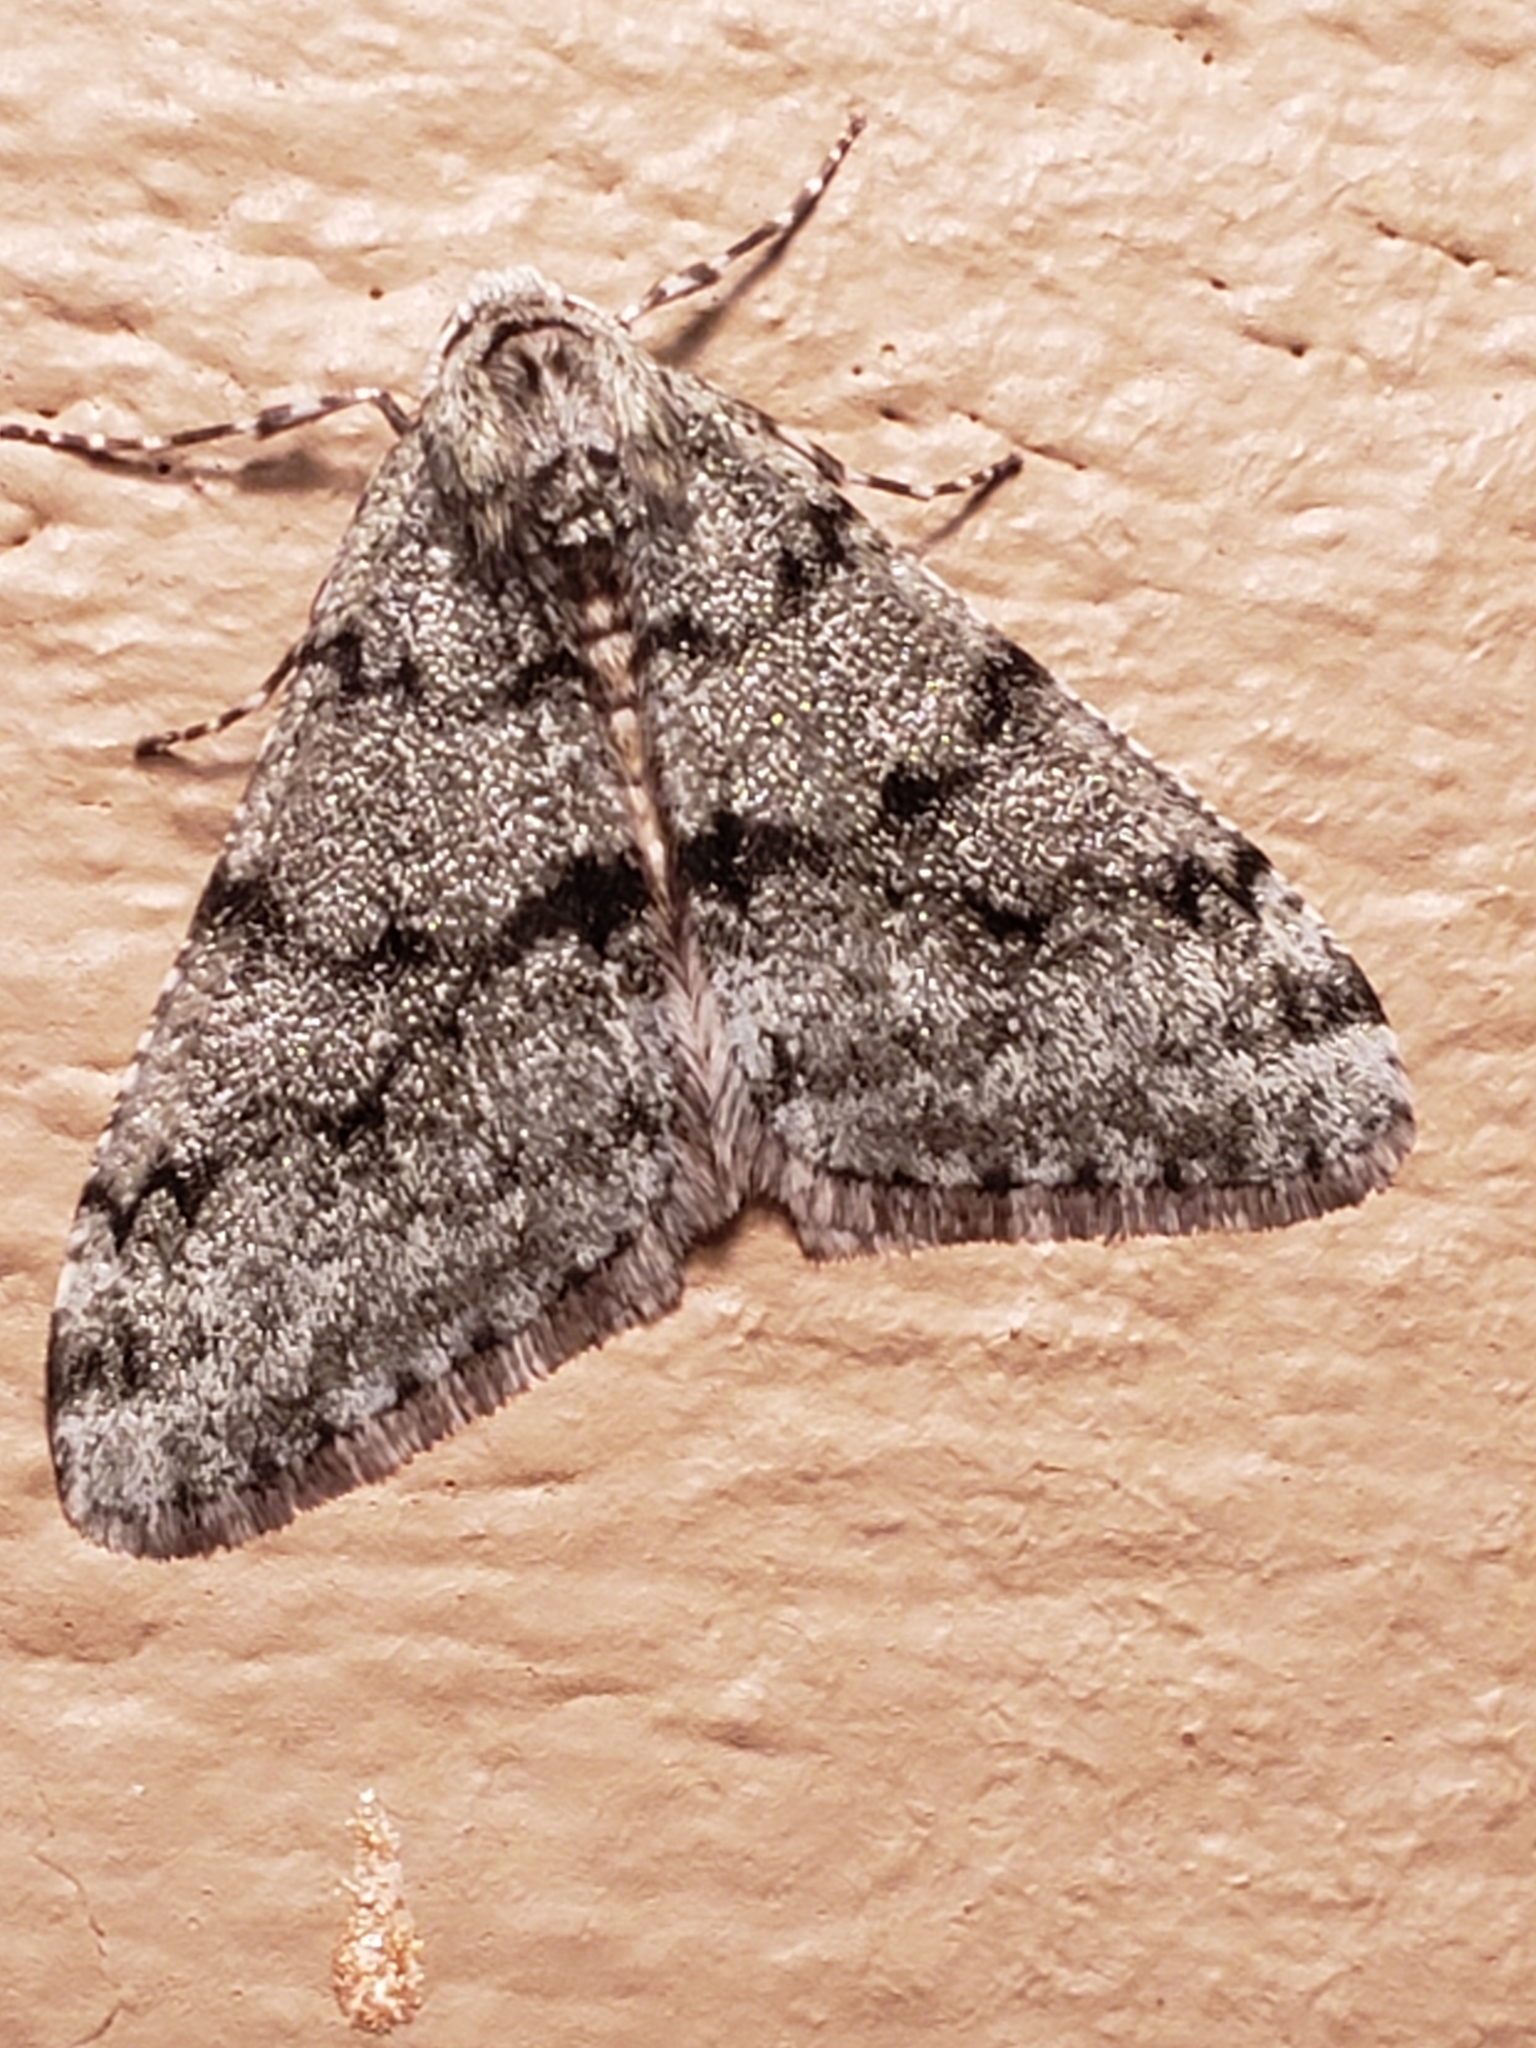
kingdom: Animalia
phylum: Arthropoda
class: Insecta
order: Lepidoptera
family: Geometridae
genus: Phigalia
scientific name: Phigalia strigataria
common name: Small phigalia
